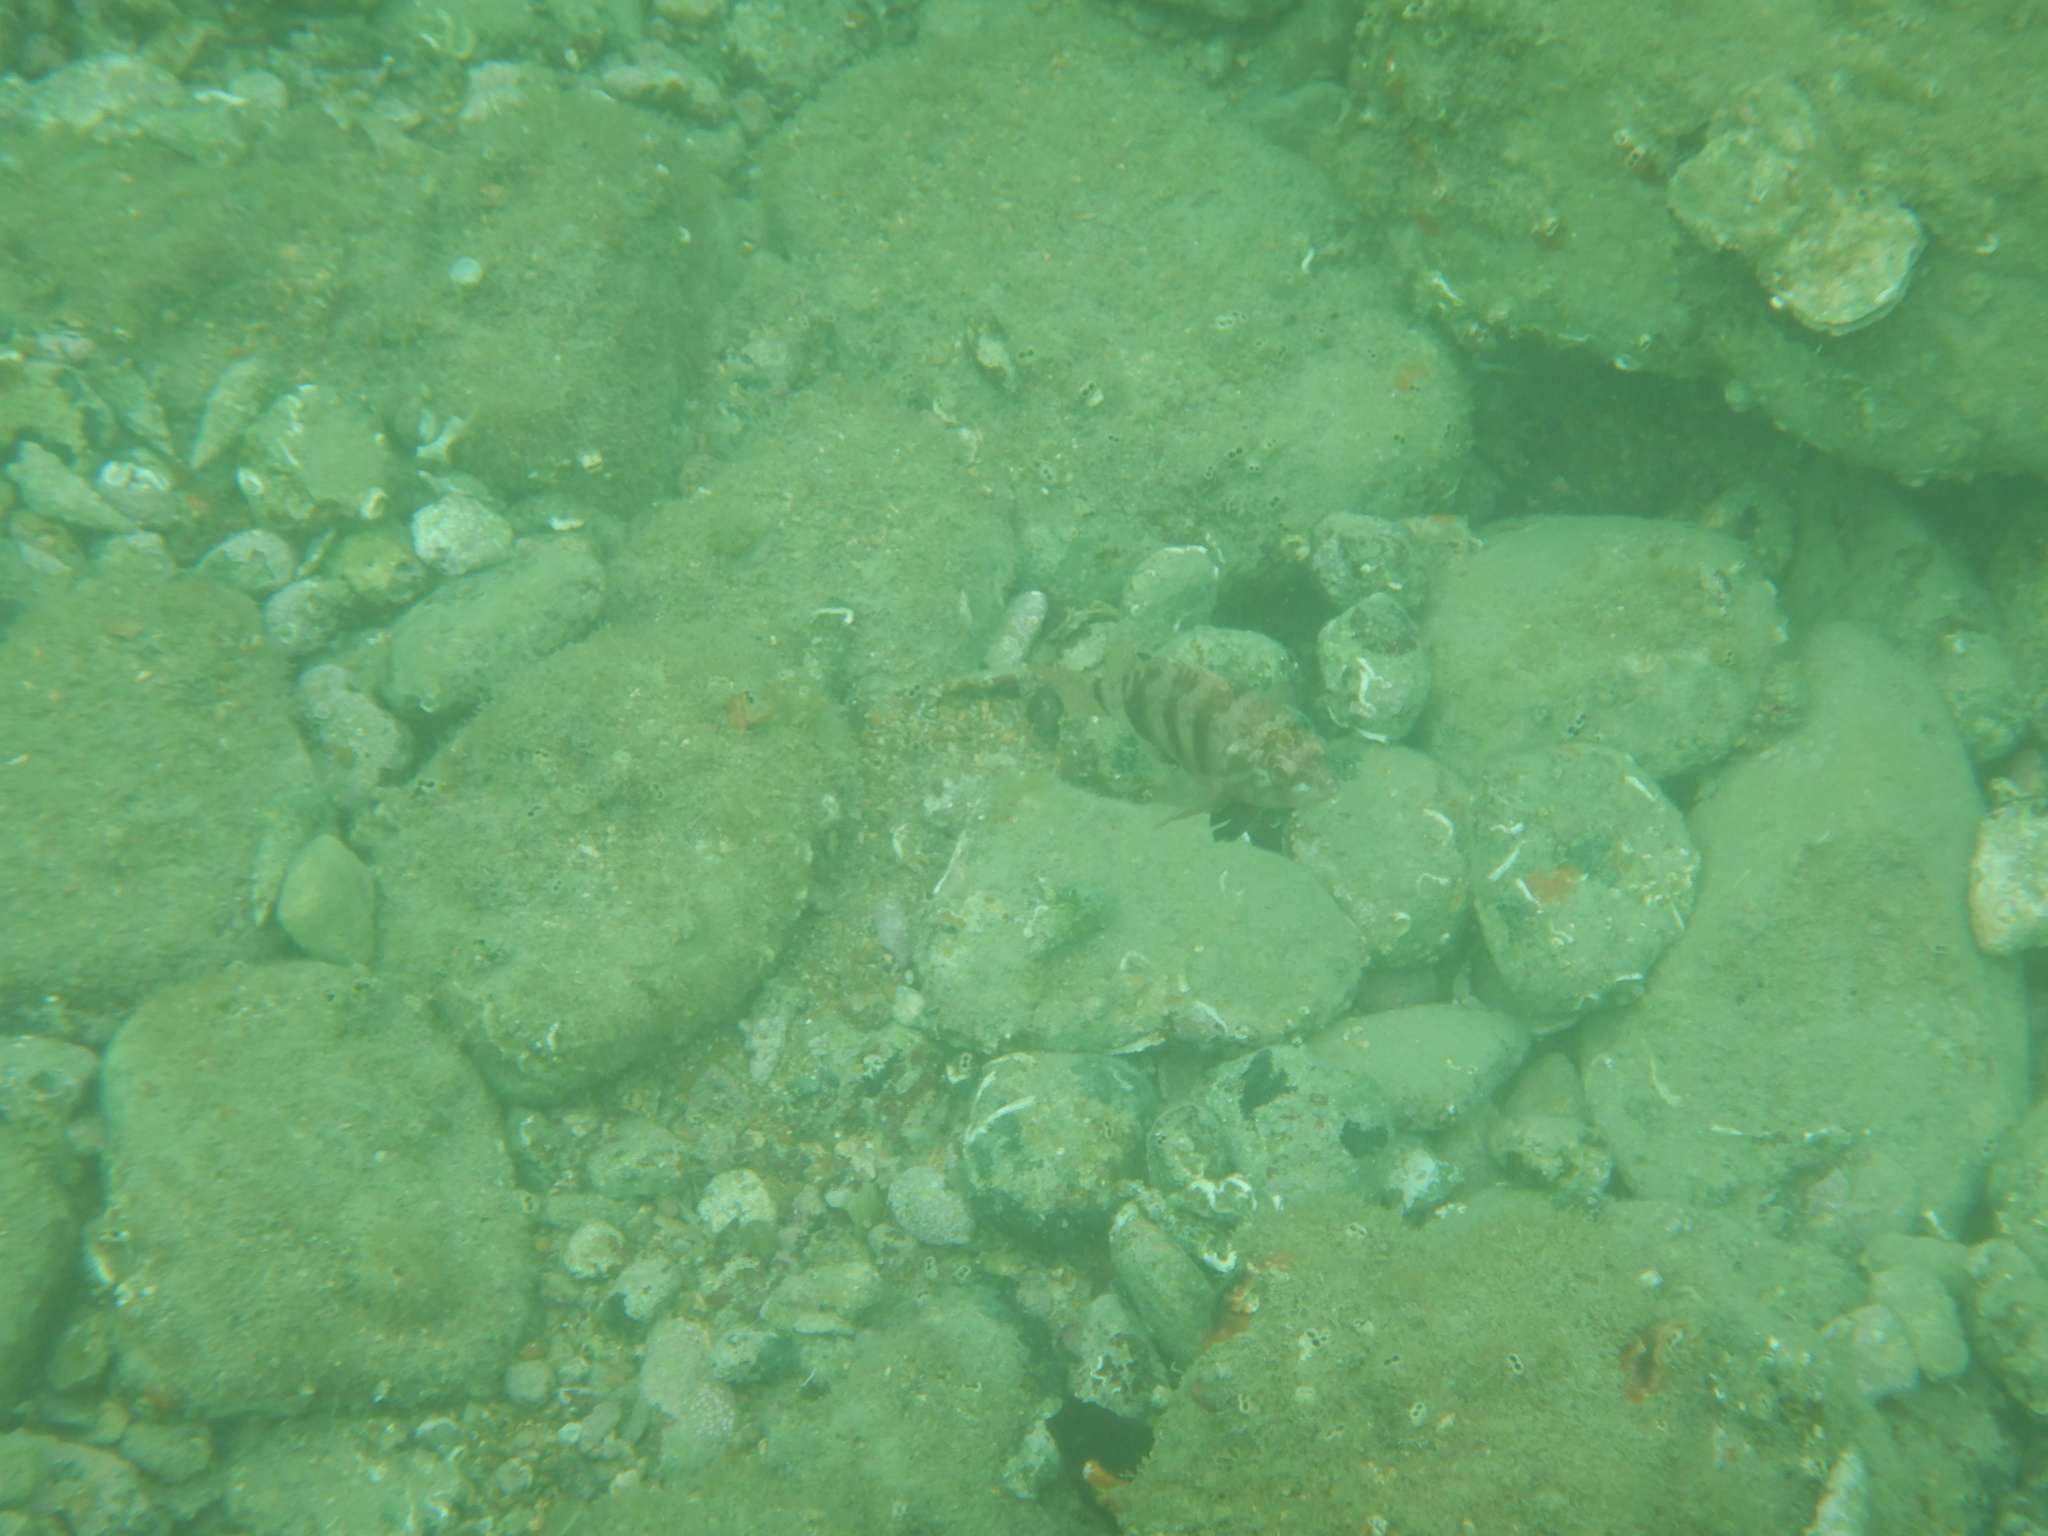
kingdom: Animalia
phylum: Chordata
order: Perciformes
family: Serranidae
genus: Serranus
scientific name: Serranus hepatus
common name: Brown comber
